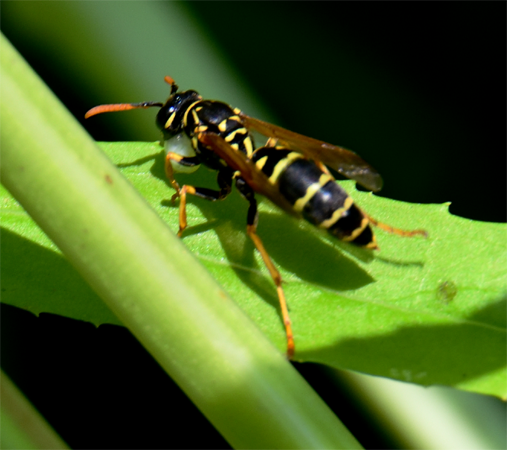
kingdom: Animalia
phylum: Arthropoda
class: Insecta
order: Hymenoptera
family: Eumenidae
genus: Polistes
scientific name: Polistes dominula
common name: Paper wasp
